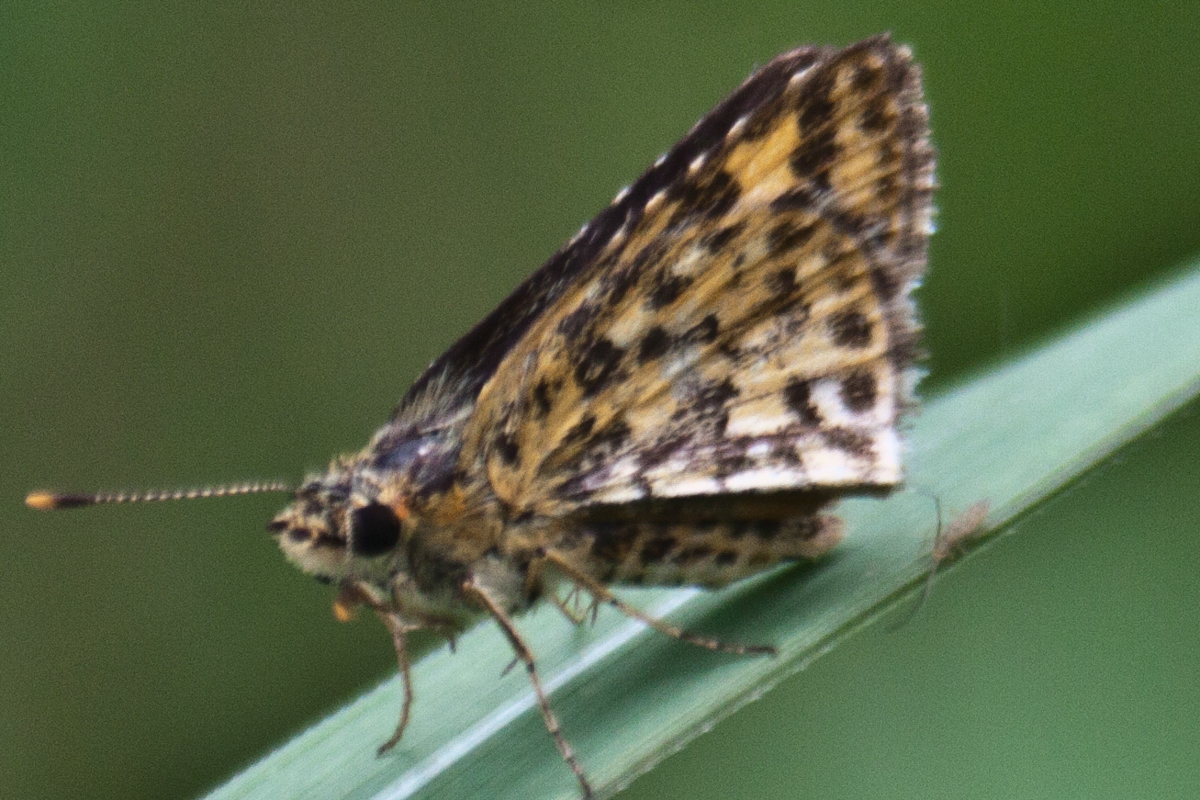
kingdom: Animalia
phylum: Arthropoda
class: Insecta
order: Lepidoptera
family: Hesperiidae
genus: Ampittia
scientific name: Ampittia dioscorides
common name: Common bush hopper
